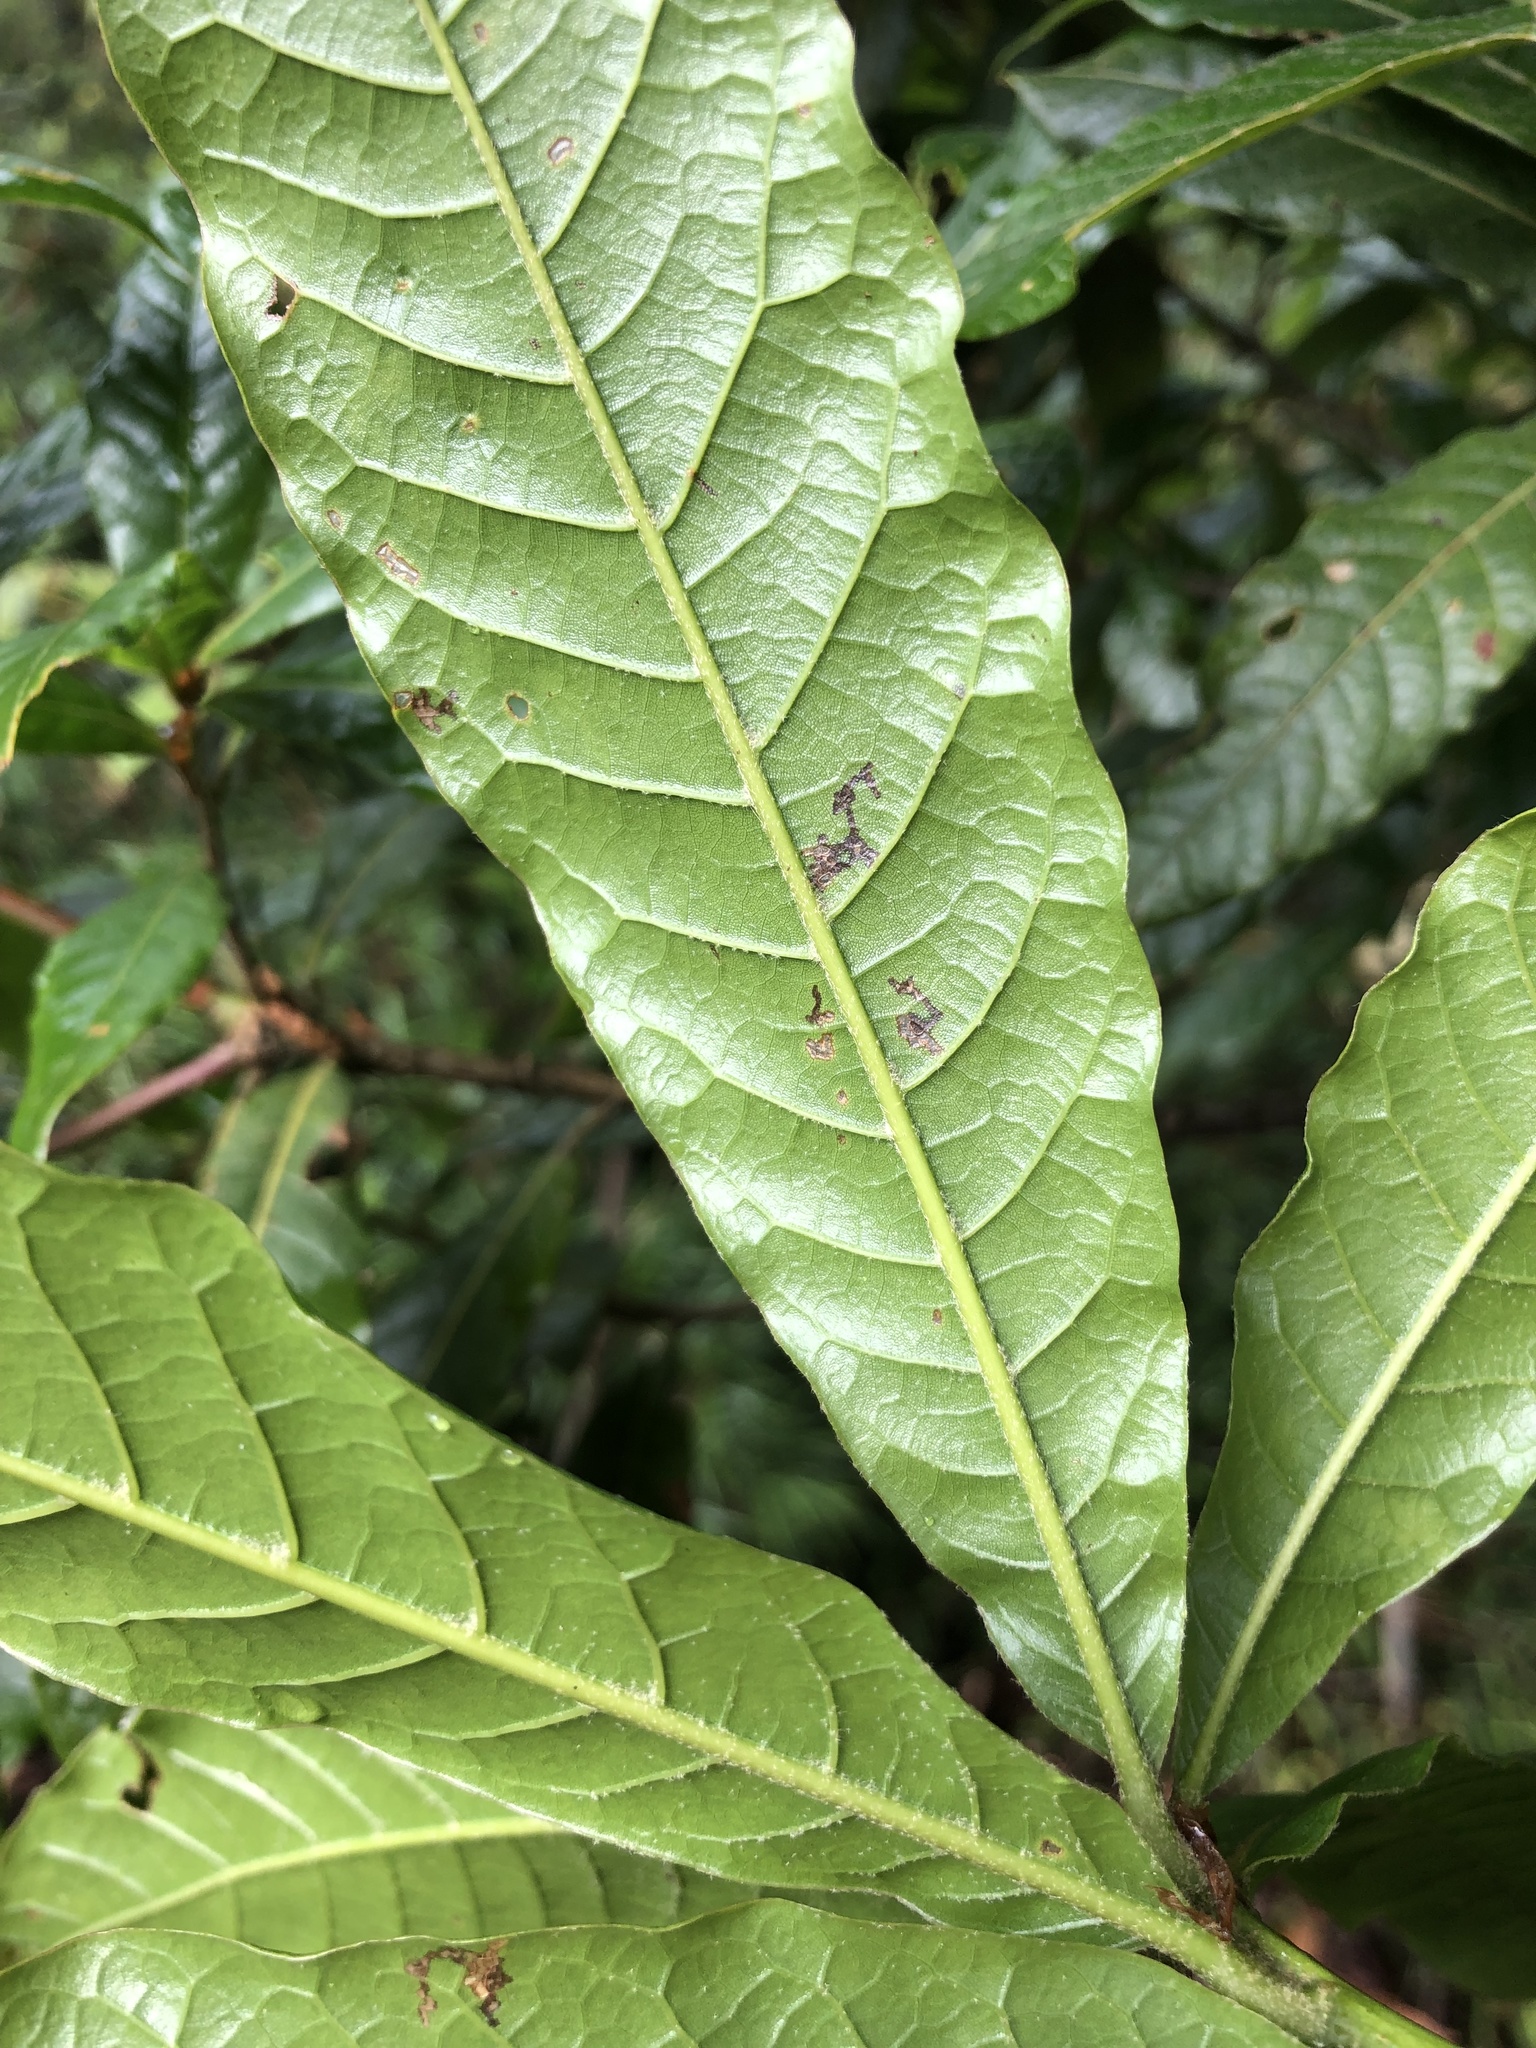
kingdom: Plantae
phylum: Tracheophyta
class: Magnoliopsida
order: Fagales
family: Fagaceae
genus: Quercus
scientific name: Quercus humboldtii
